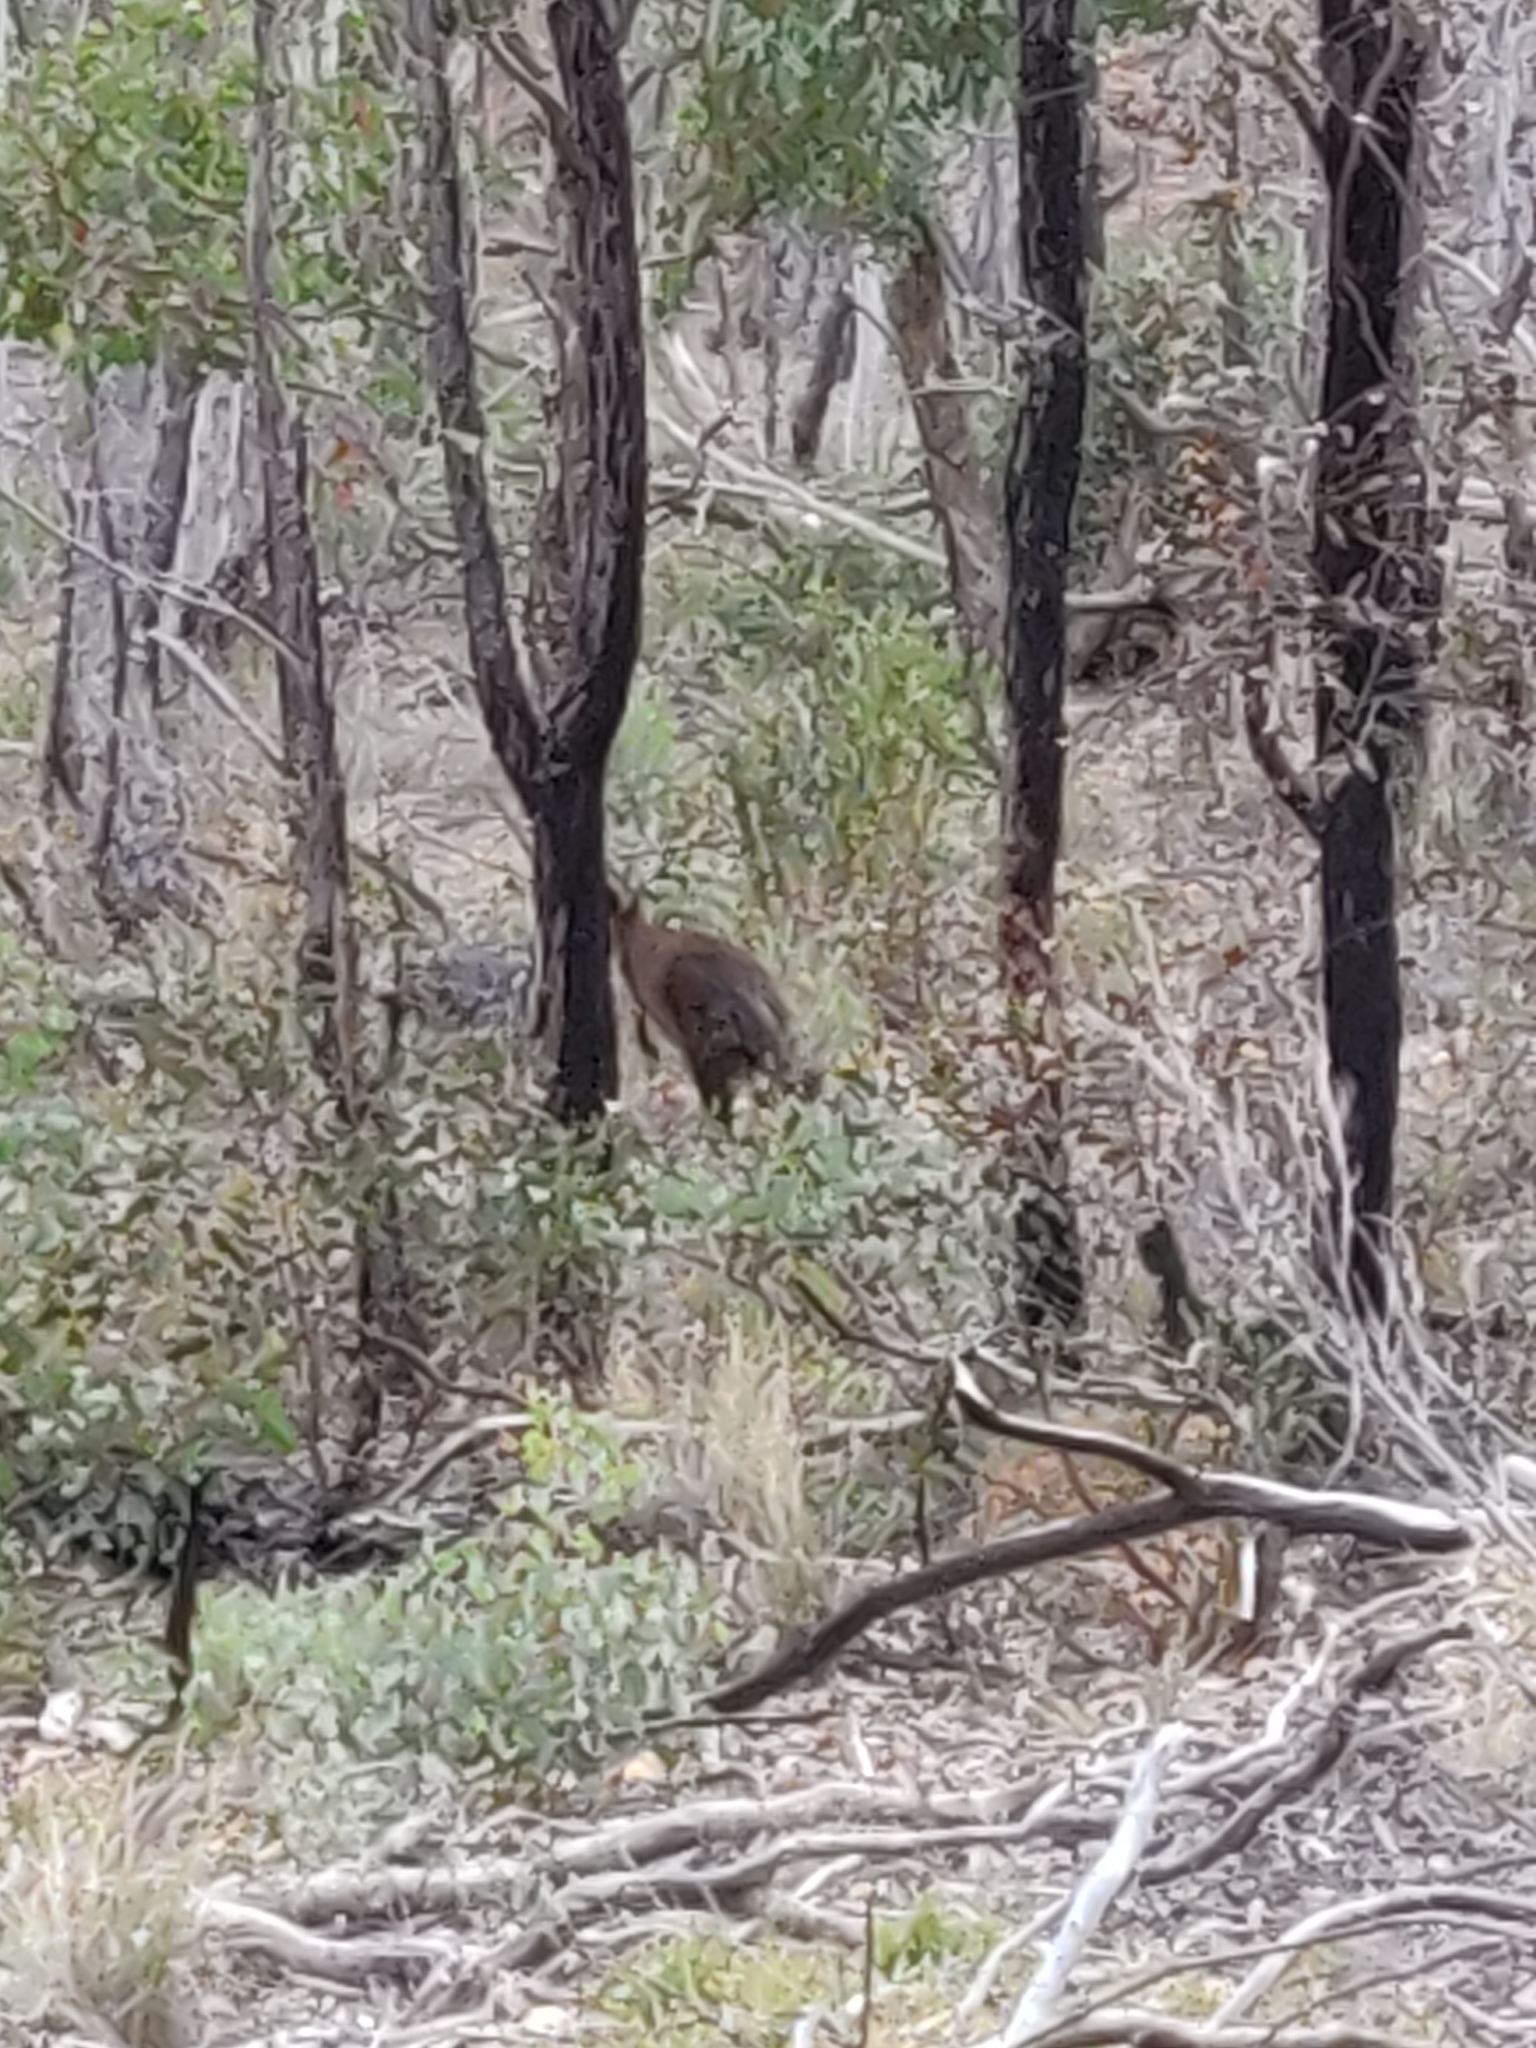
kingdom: Animalia
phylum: Chordata
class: Mammalia
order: Diprotodontia
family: Macropodidae
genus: Wallabia
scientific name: Wallabia bicolor
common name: Swamp wallaby
